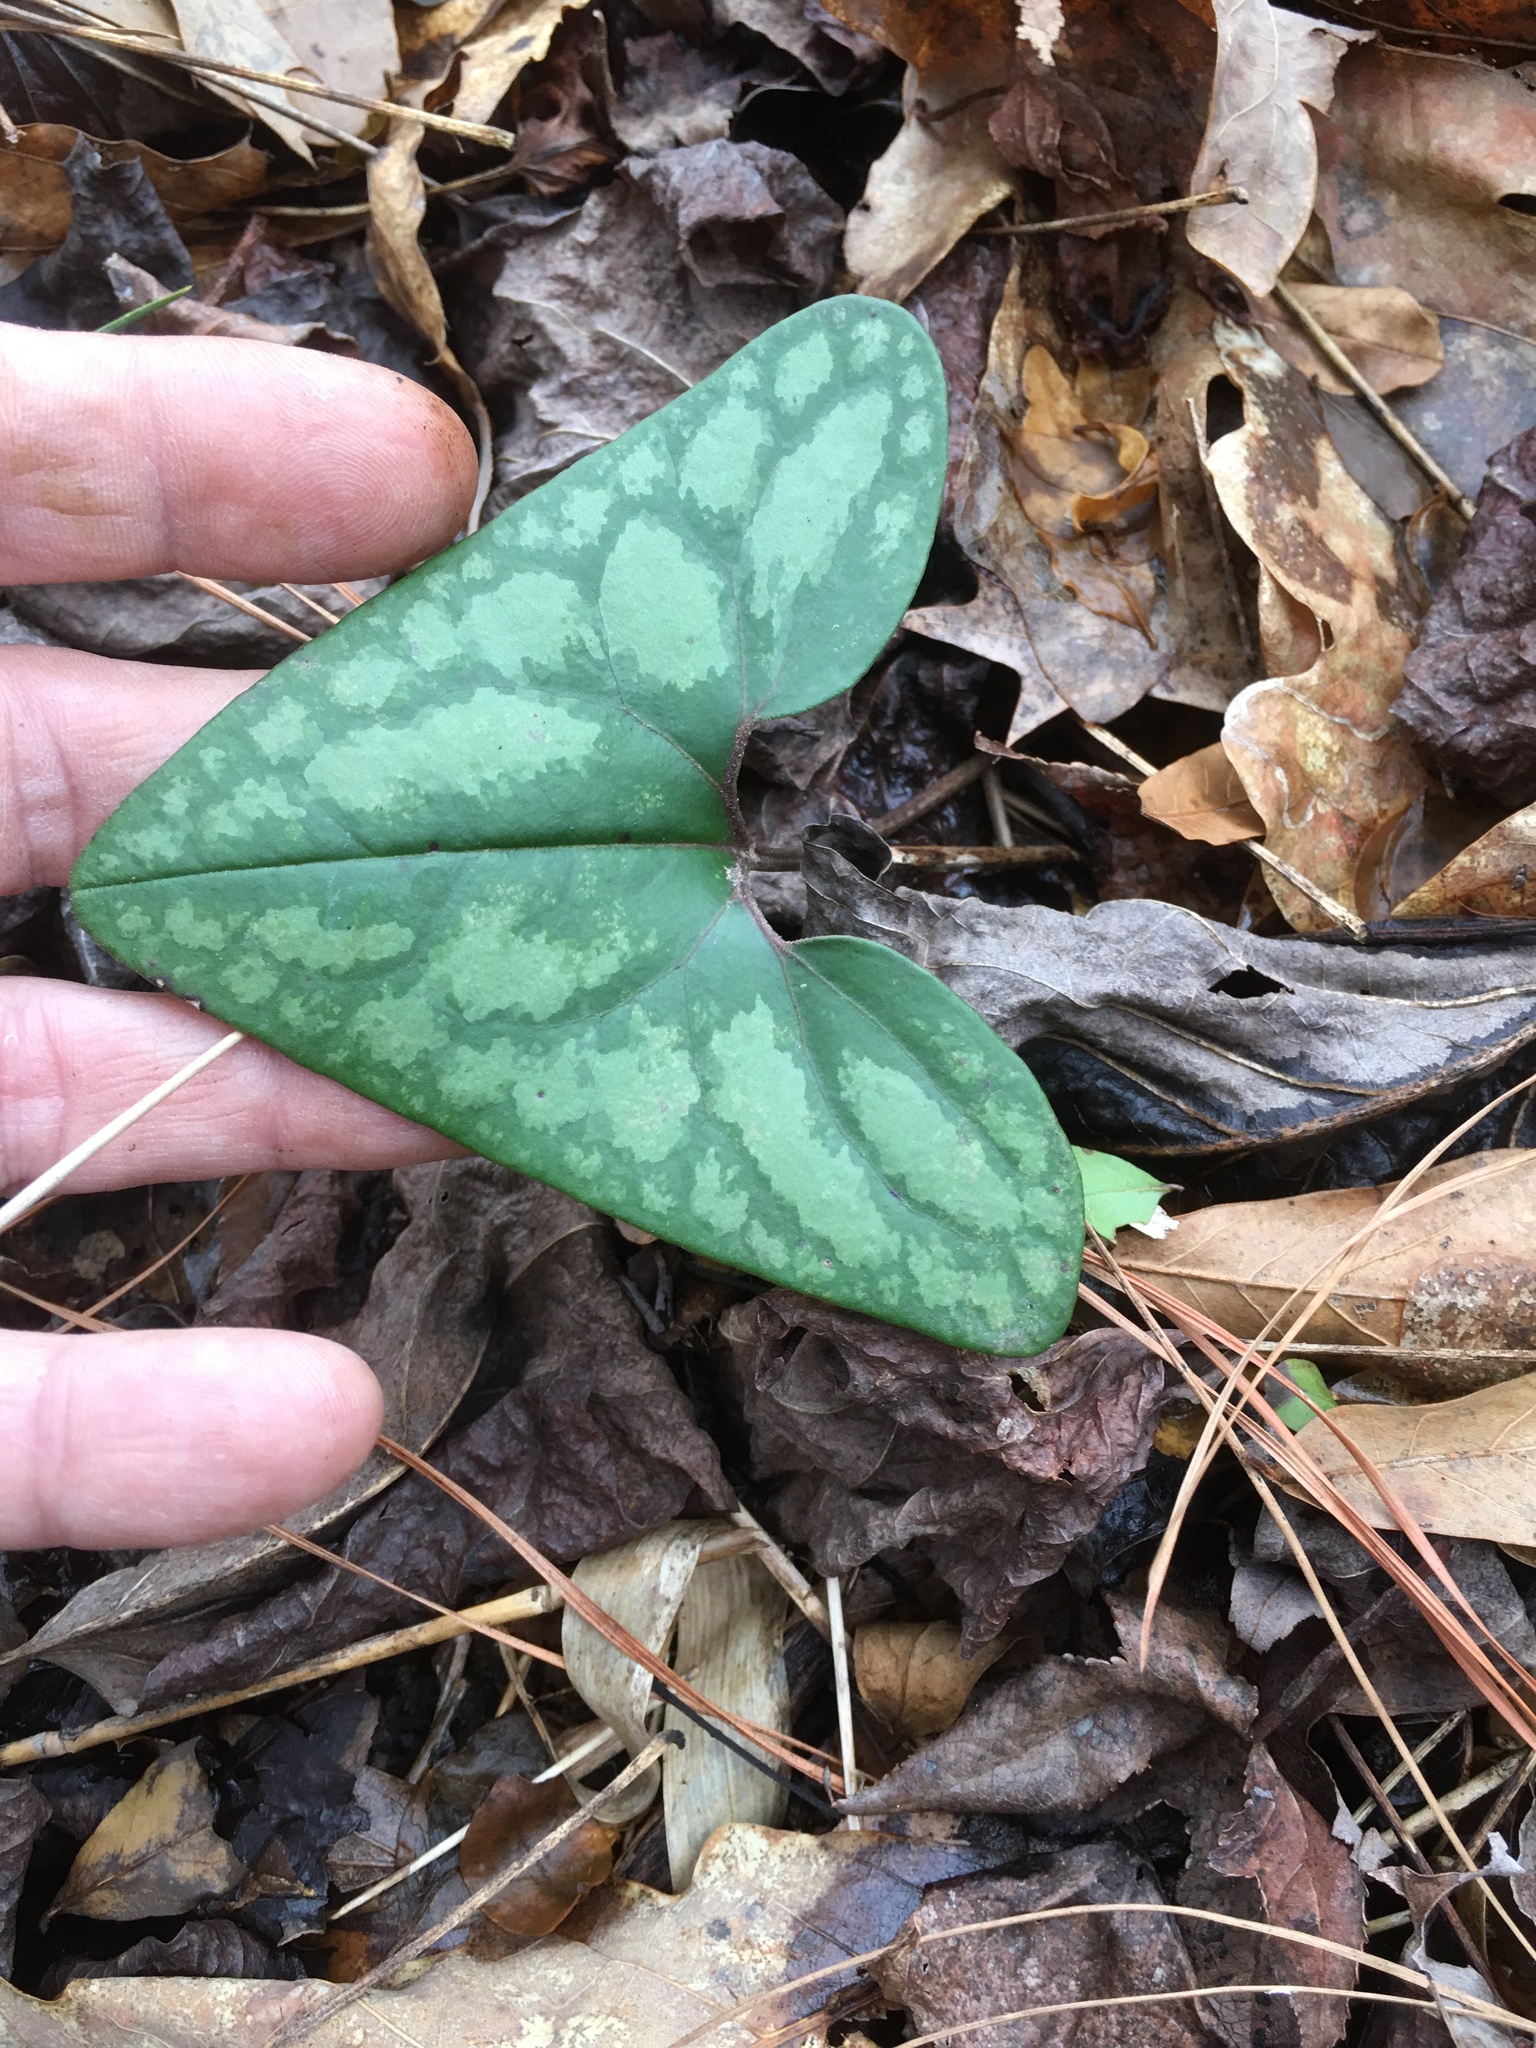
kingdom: Plantae
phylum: Tracheophyta
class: Magnoliopsida
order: Piperales
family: Aristolochiaceae
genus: Hexastylis
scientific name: Hexastylis arifolia
